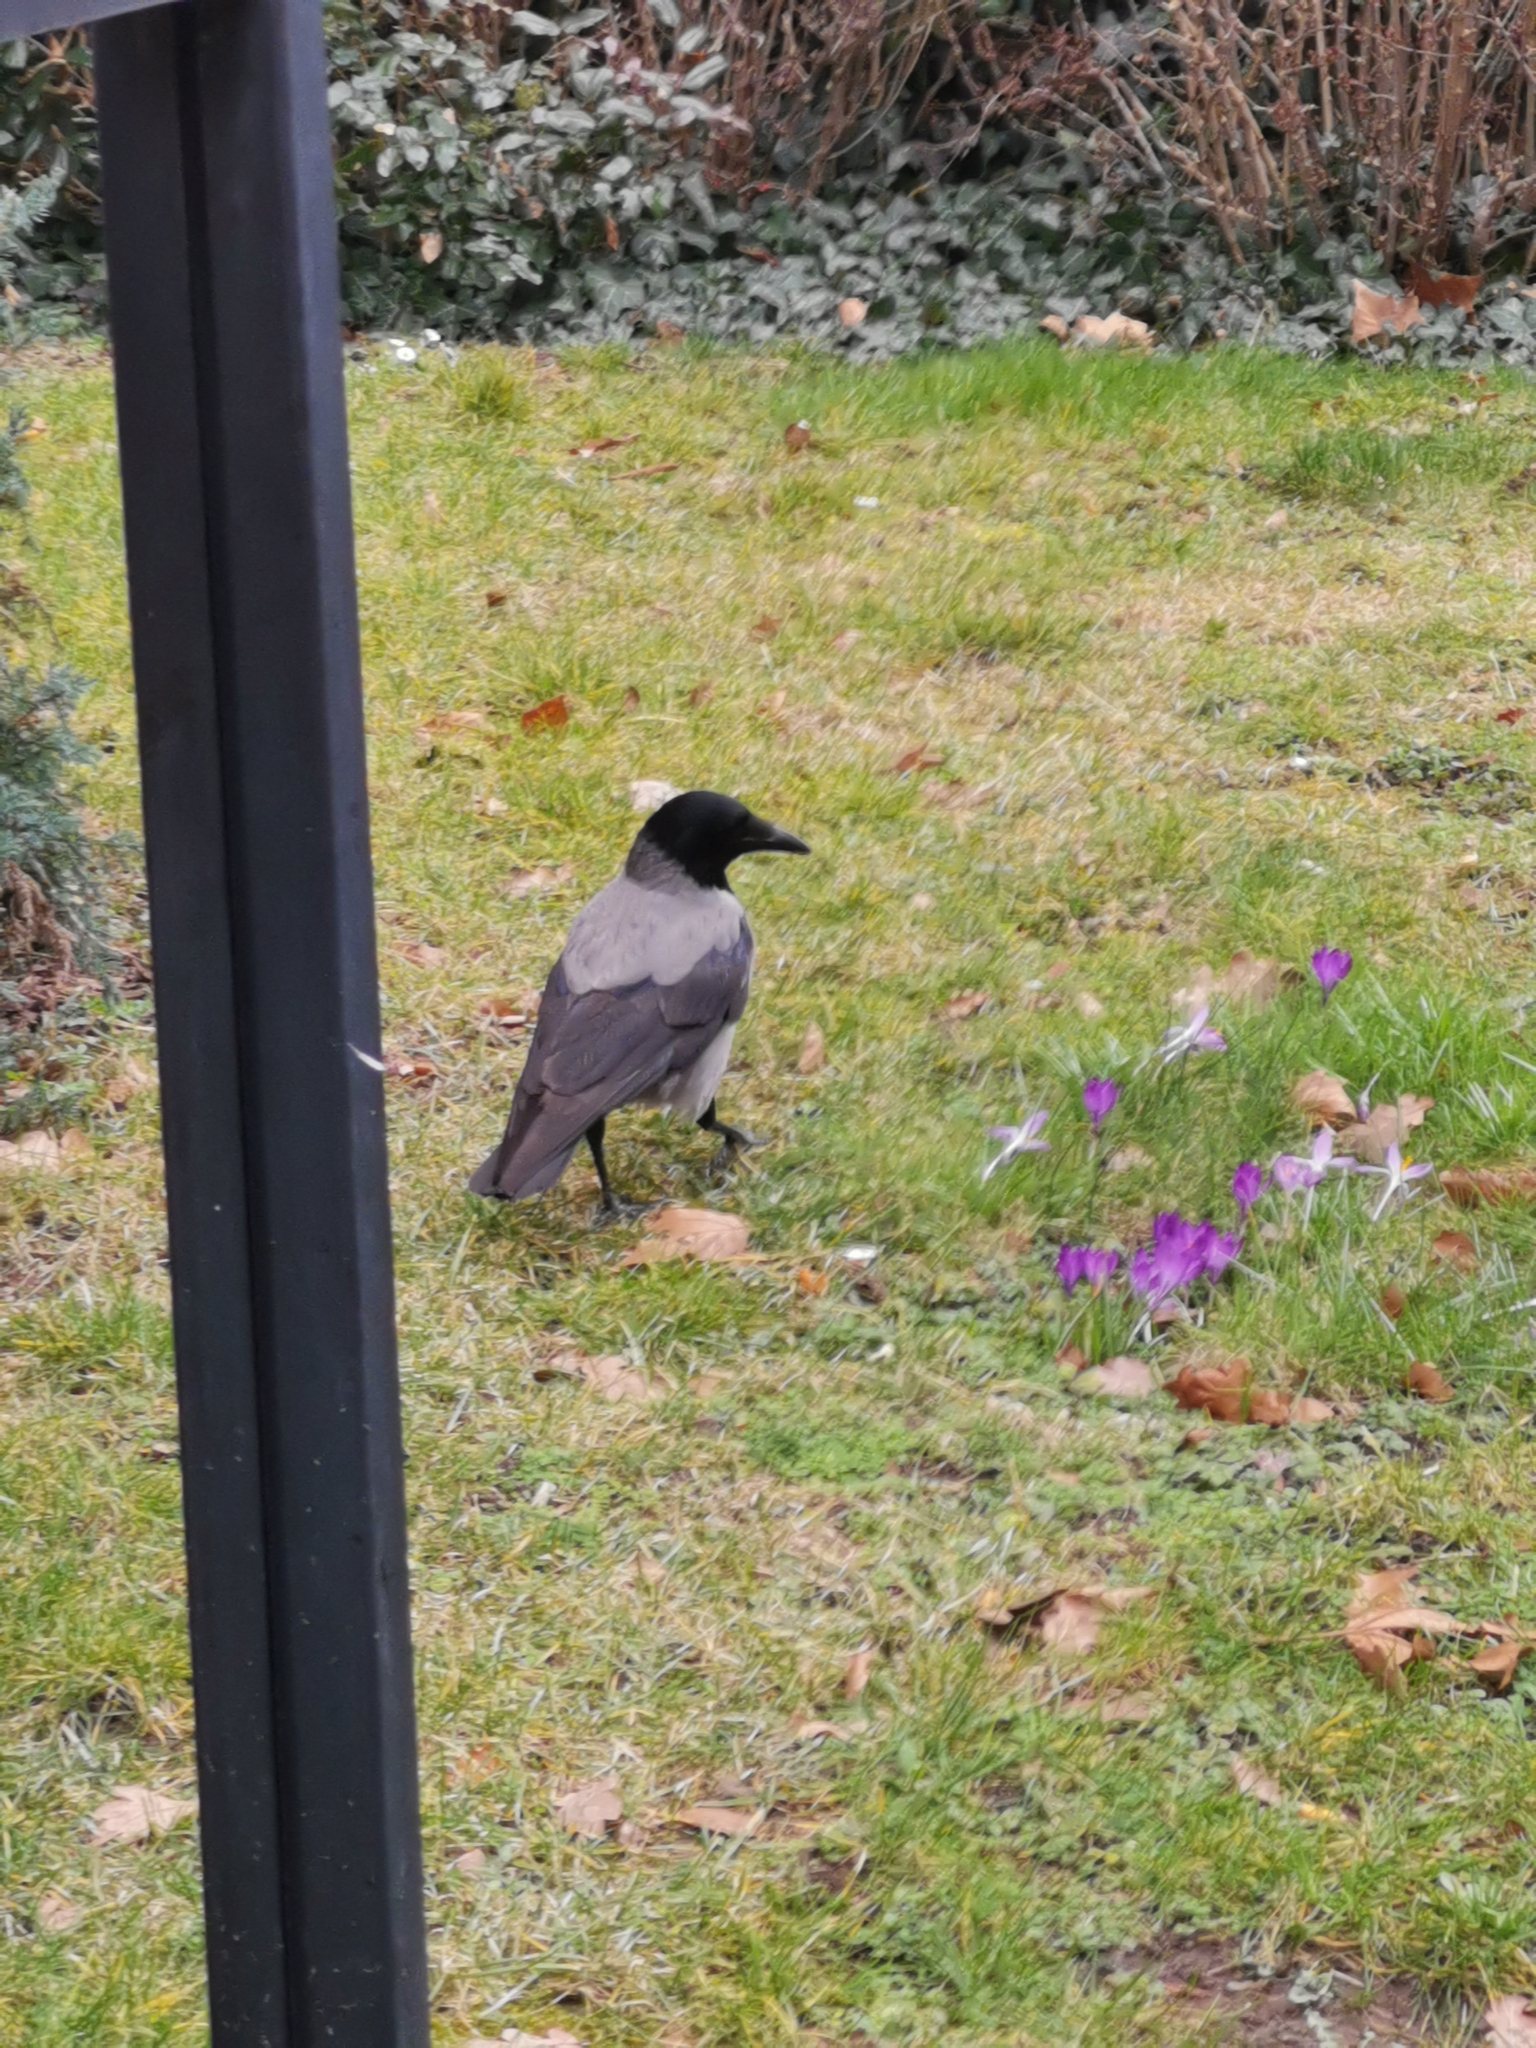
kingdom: Animalia
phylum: Chordata
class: Aves
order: Passeriformes
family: Corvidae
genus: Corvus
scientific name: Corvus cornix
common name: Hooded crow
